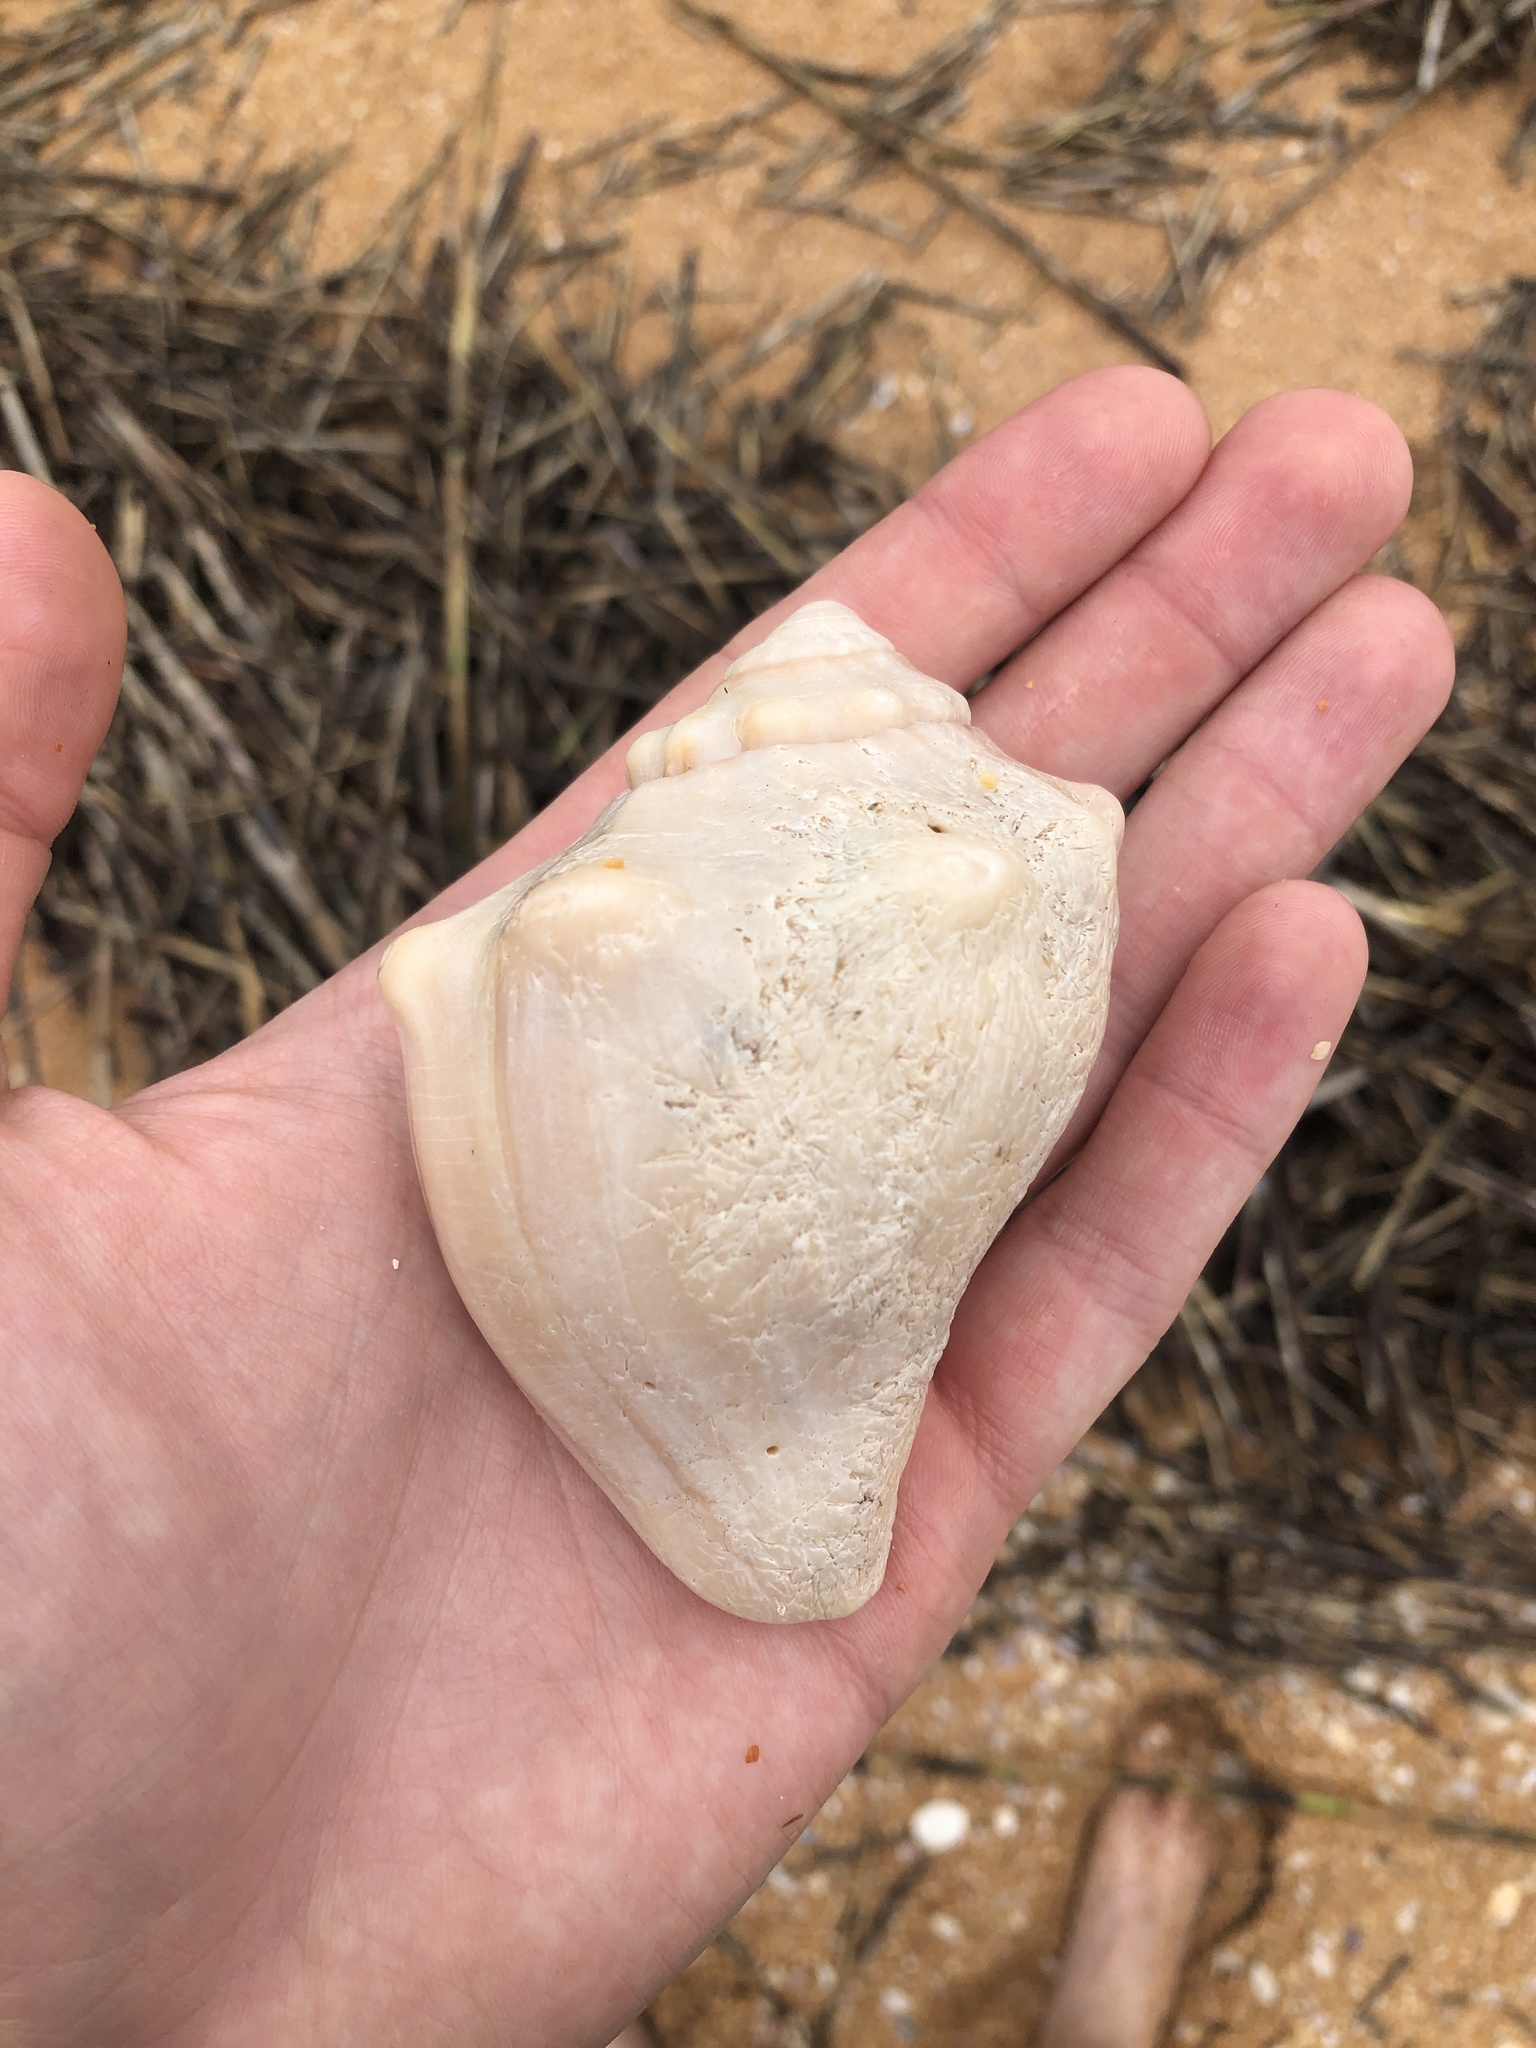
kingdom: Animalia
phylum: Mollusca
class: Gastropoda
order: Neogastropoda
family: Busyconidae
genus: Busycon
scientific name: Busycon carica
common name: Knobbed whelk
